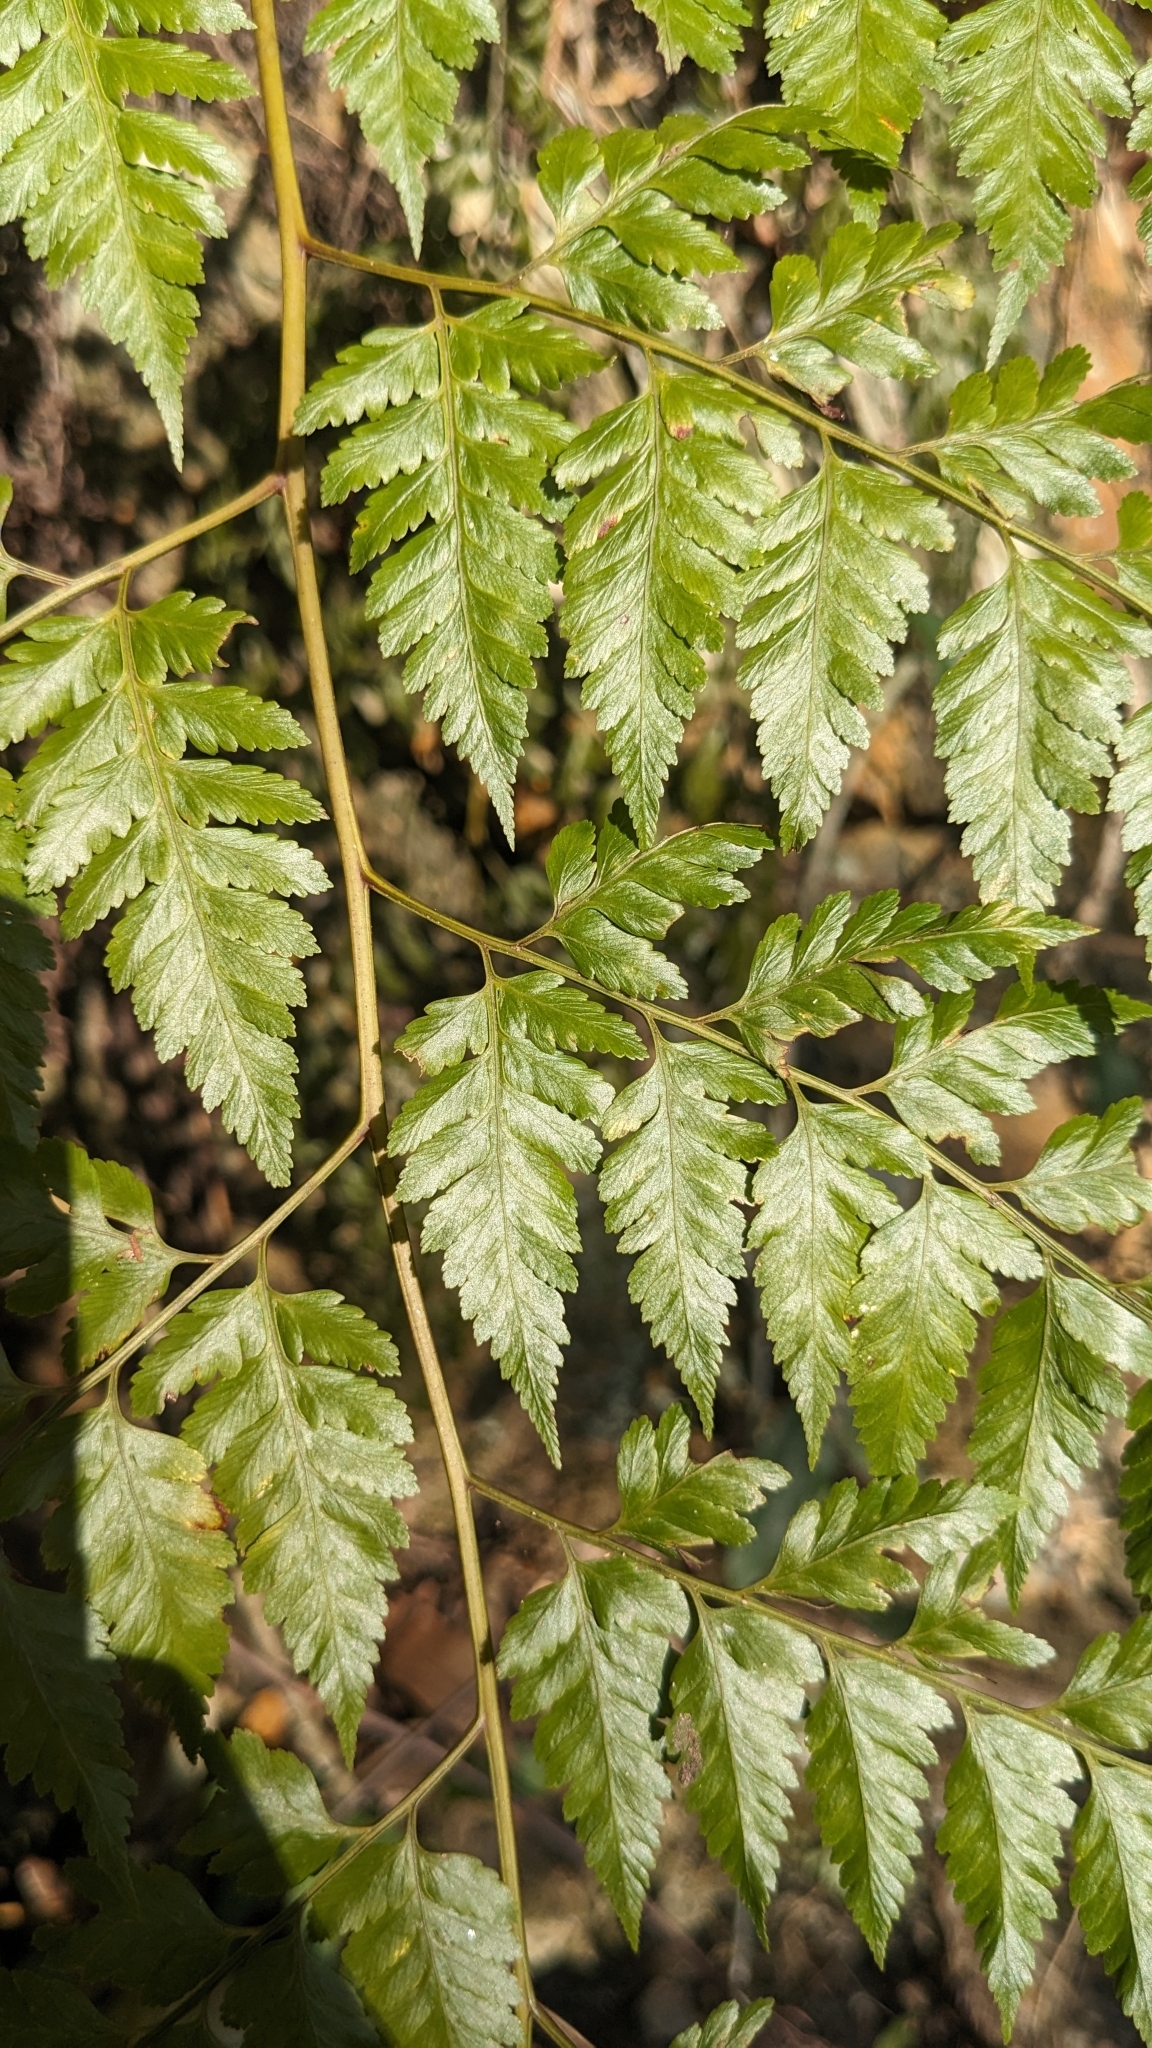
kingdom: Plantae
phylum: Tracheophyta
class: Polypodiopsida
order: Polypodiales
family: Davalliaceae
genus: Davallia
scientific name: Davallia divaricata
